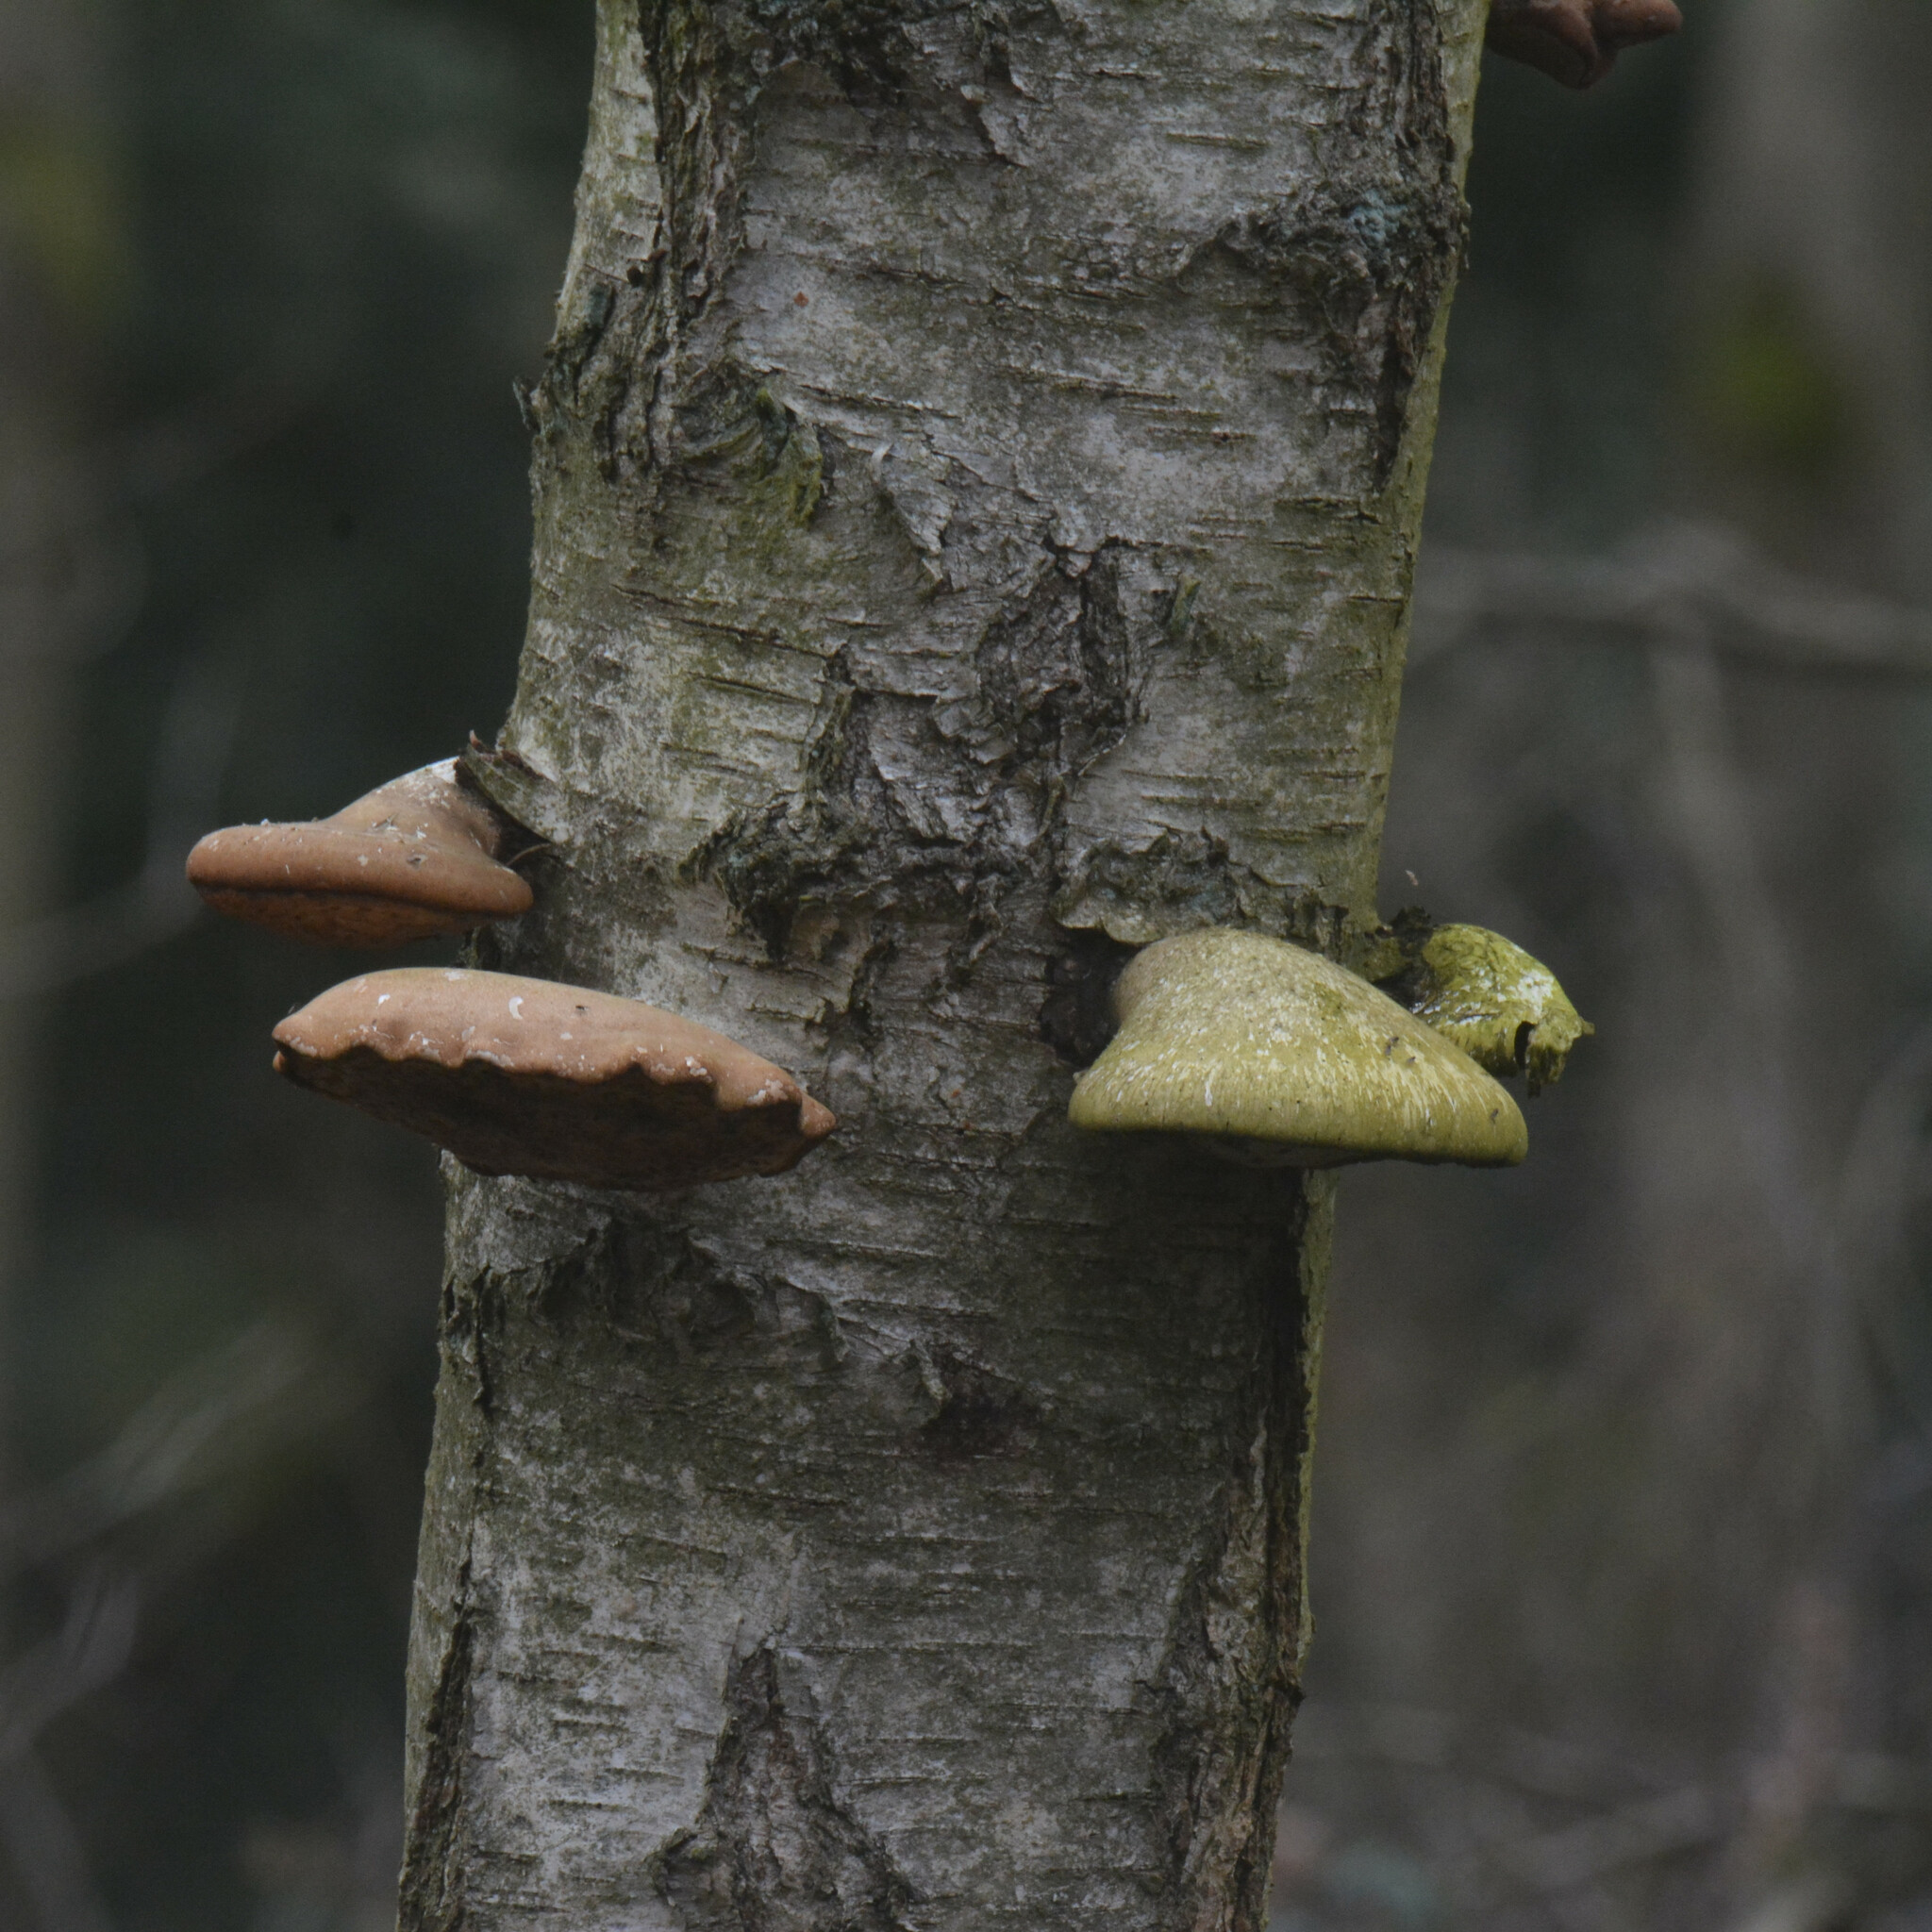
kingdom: Fungi
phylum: Basidiomycota
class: Agaricomycetes
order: Polyporales
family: Fomitopsidaceae
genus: Fomitopsis
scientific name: Fomitopsis betulina
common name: Birch polypore
